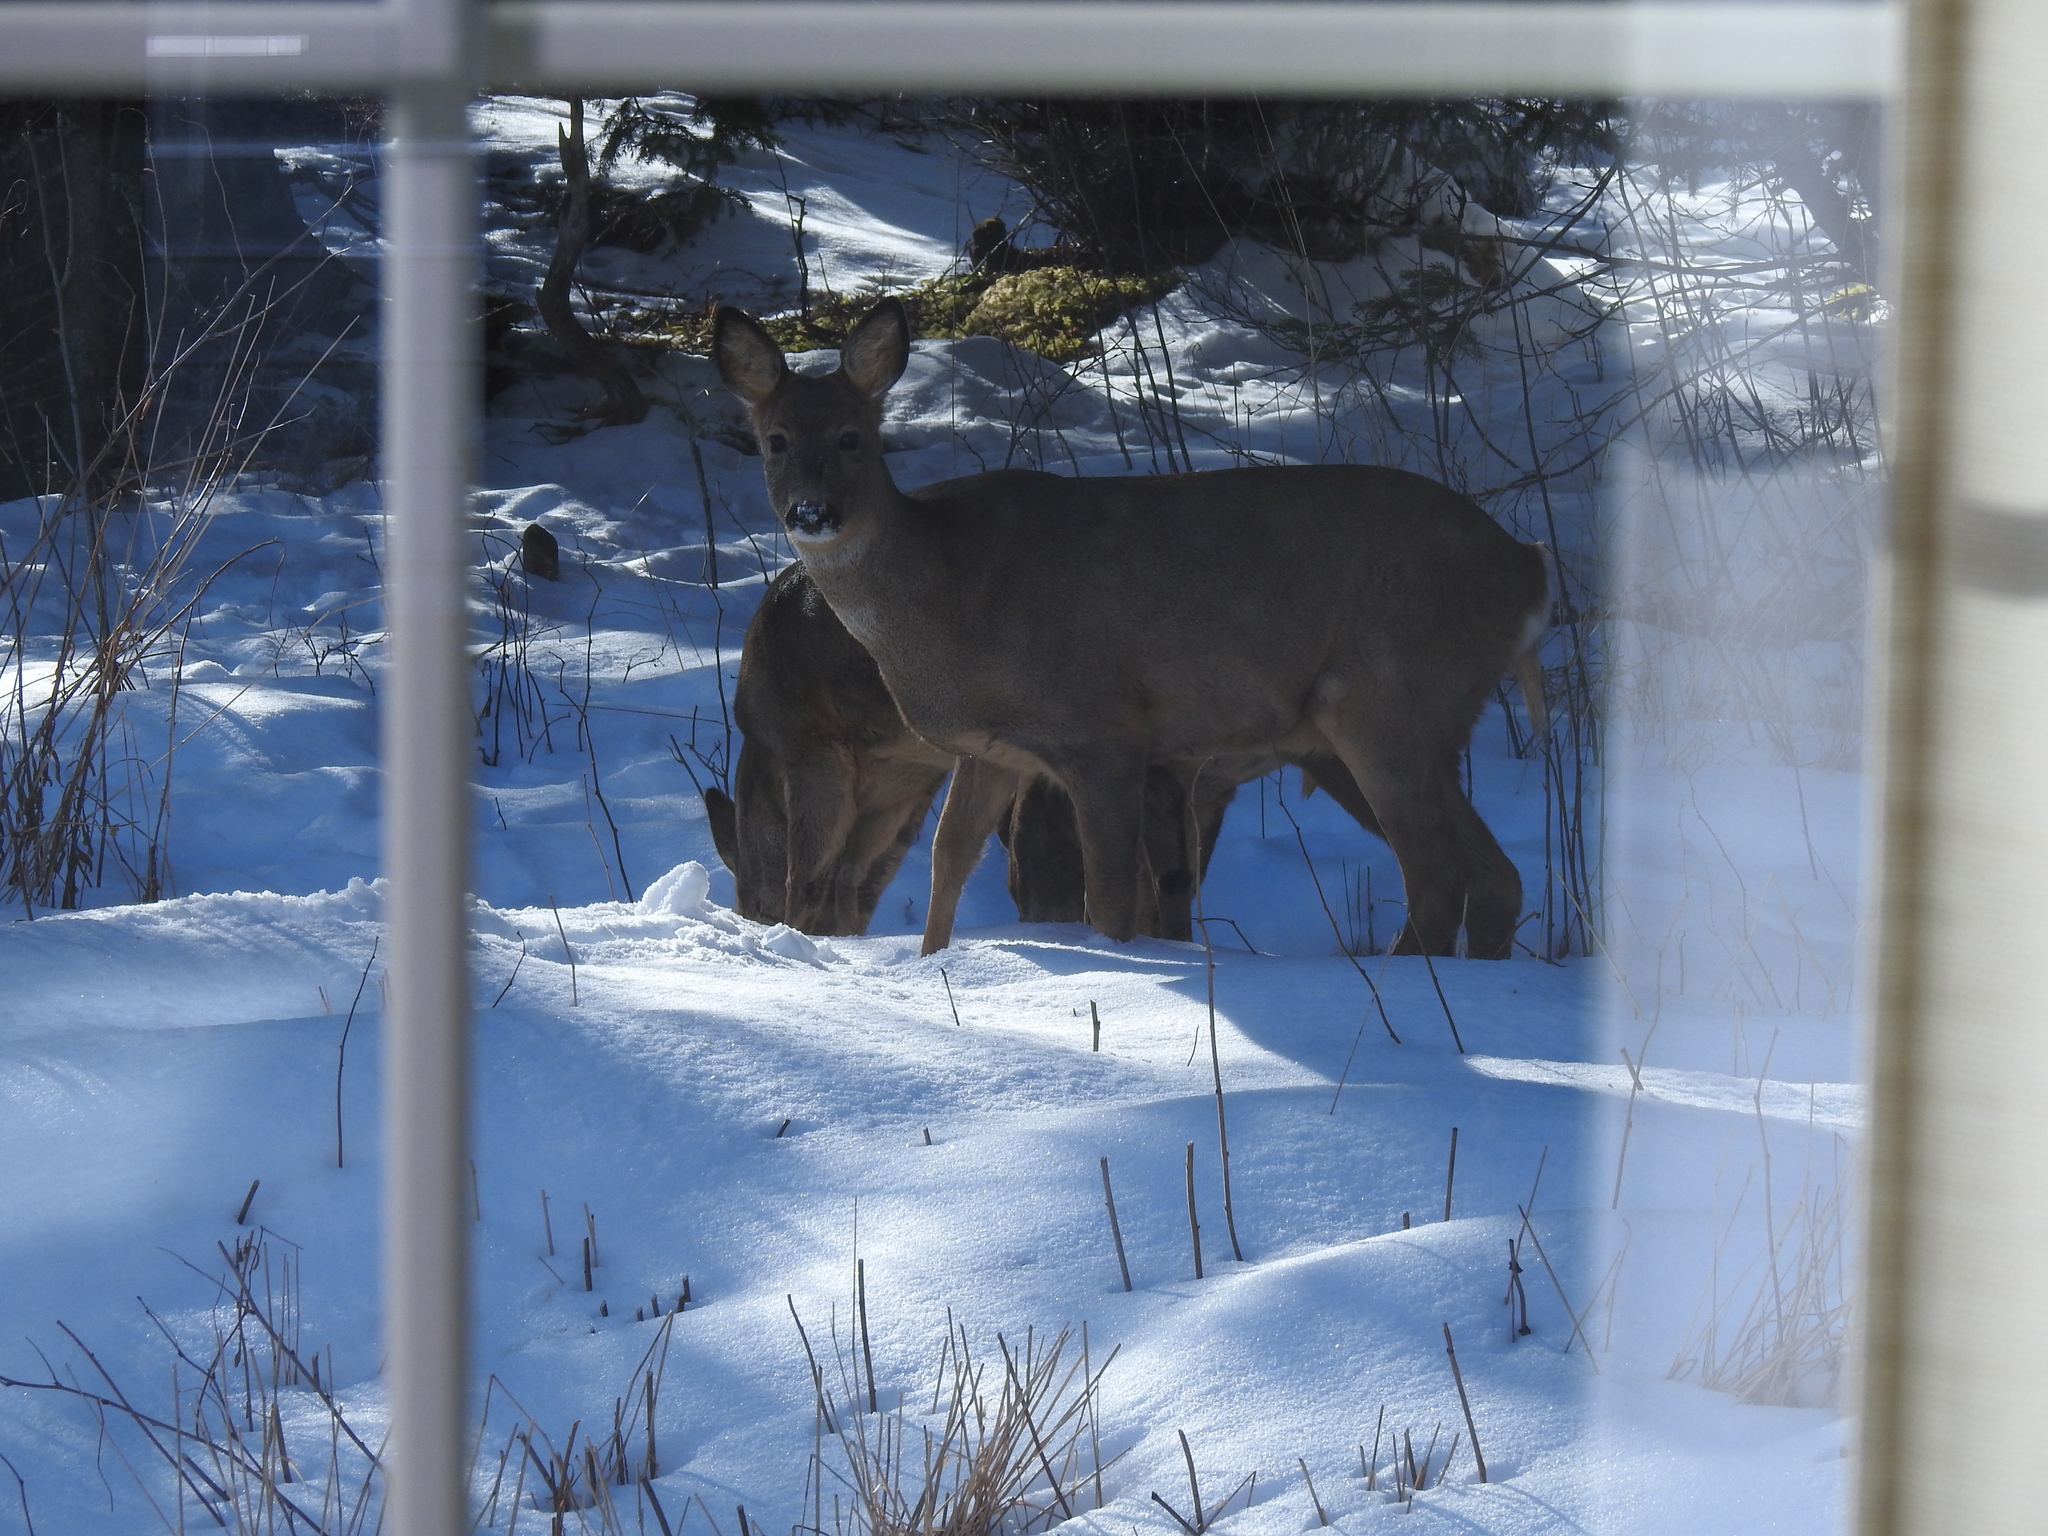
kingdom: Animalia
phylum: Chordata
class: Mammalia
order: Artiodactyla
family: Cervidae
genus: Capreolus
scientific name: Capreolus capreolus
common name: Western roe deer
